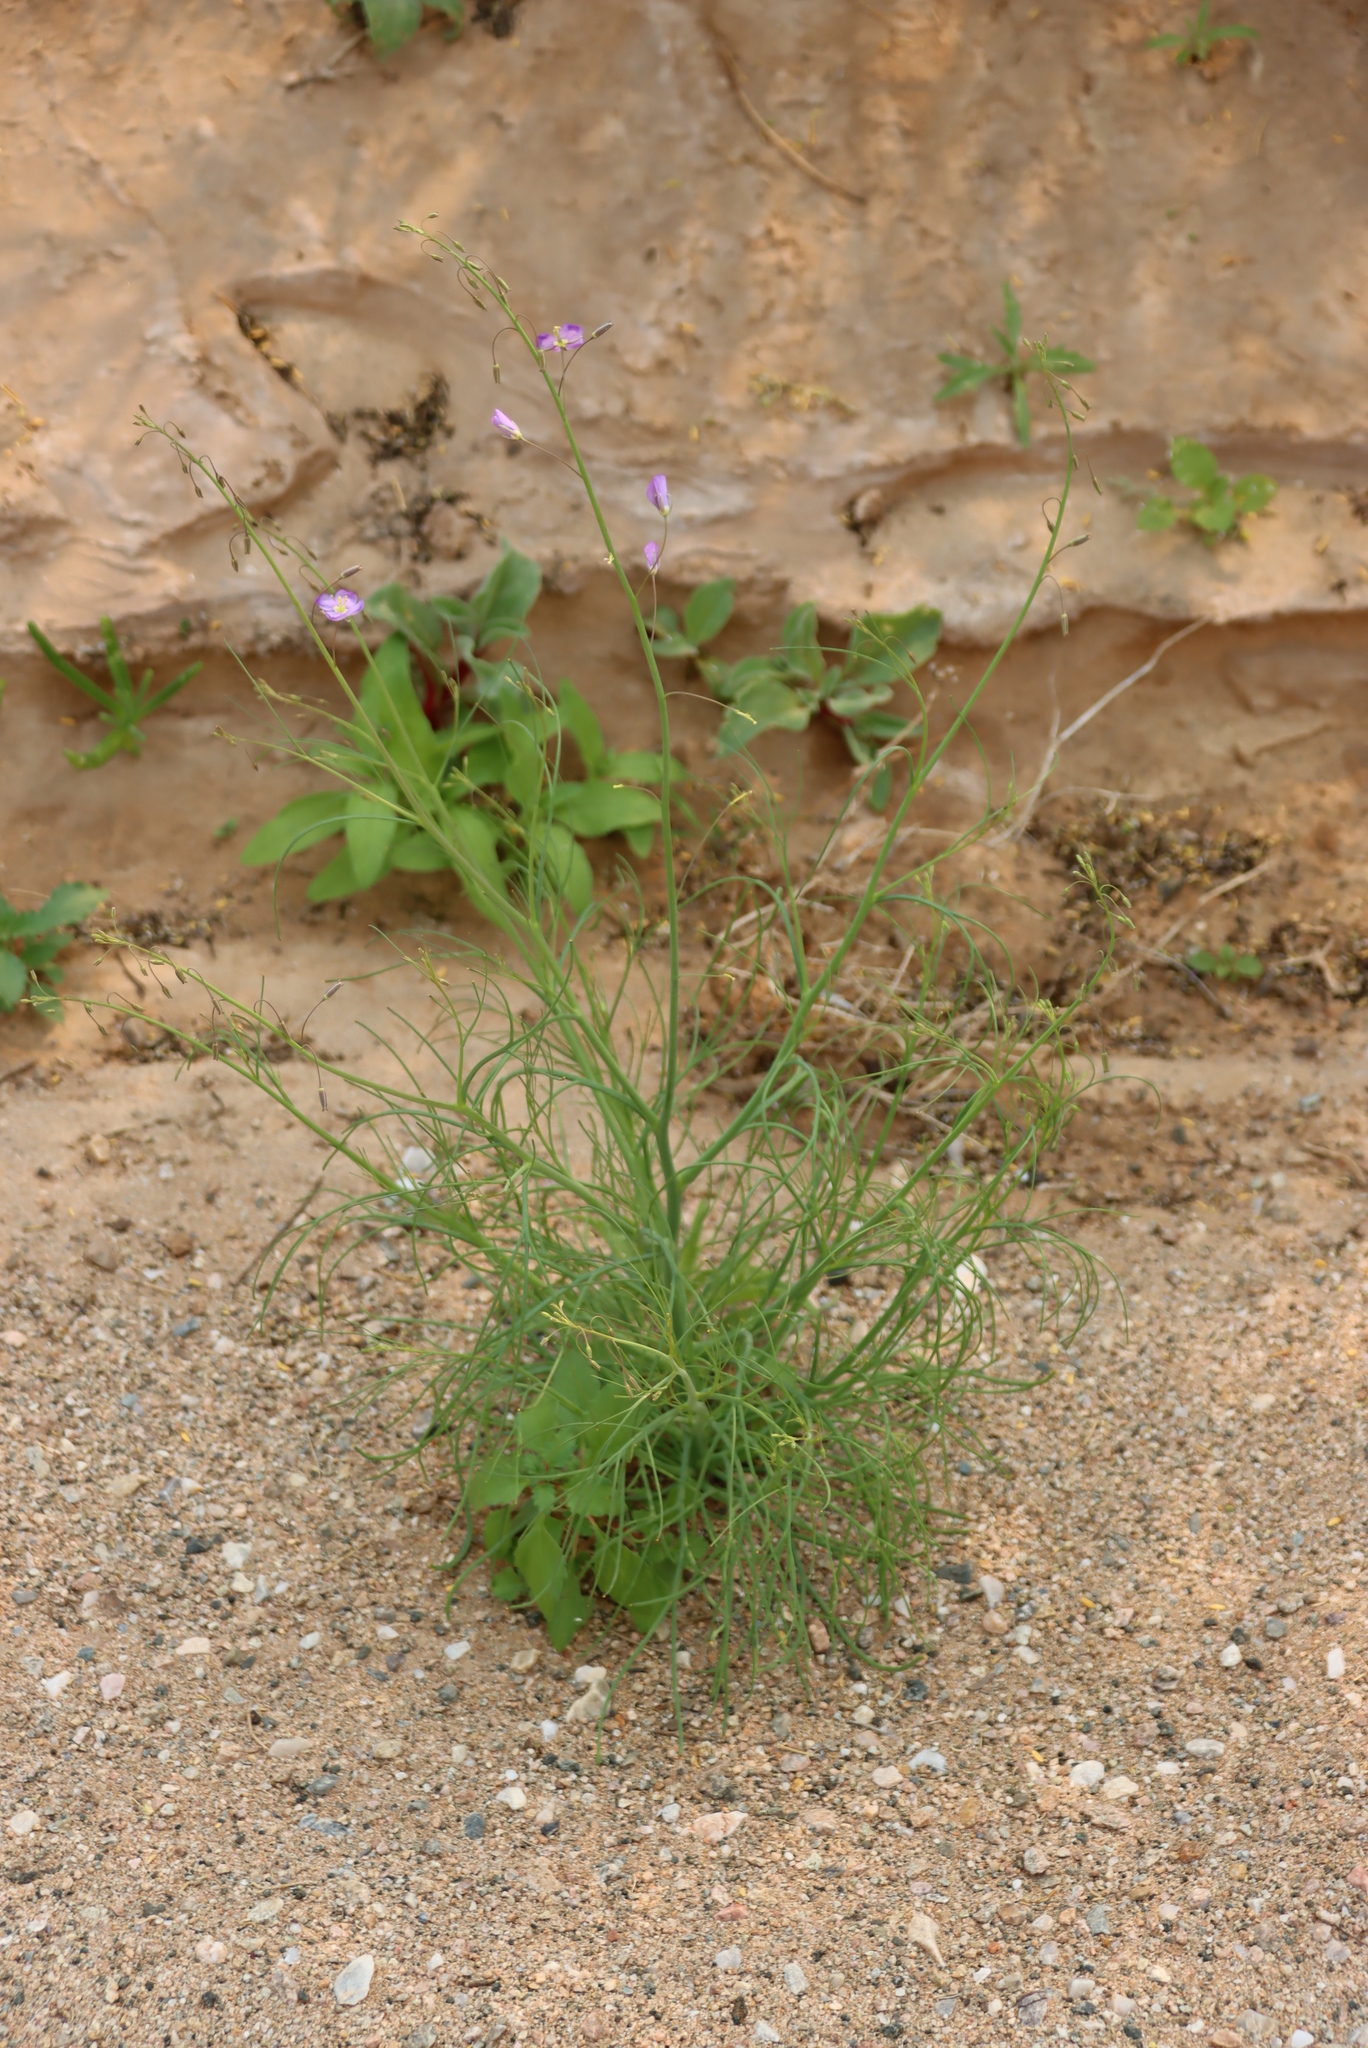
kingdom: Plantae
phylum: Tracheophyta
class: Magnoliopsida
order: Brassicales
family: Brassicaceae
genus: Heliophila
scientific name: Heliophila trifurca
